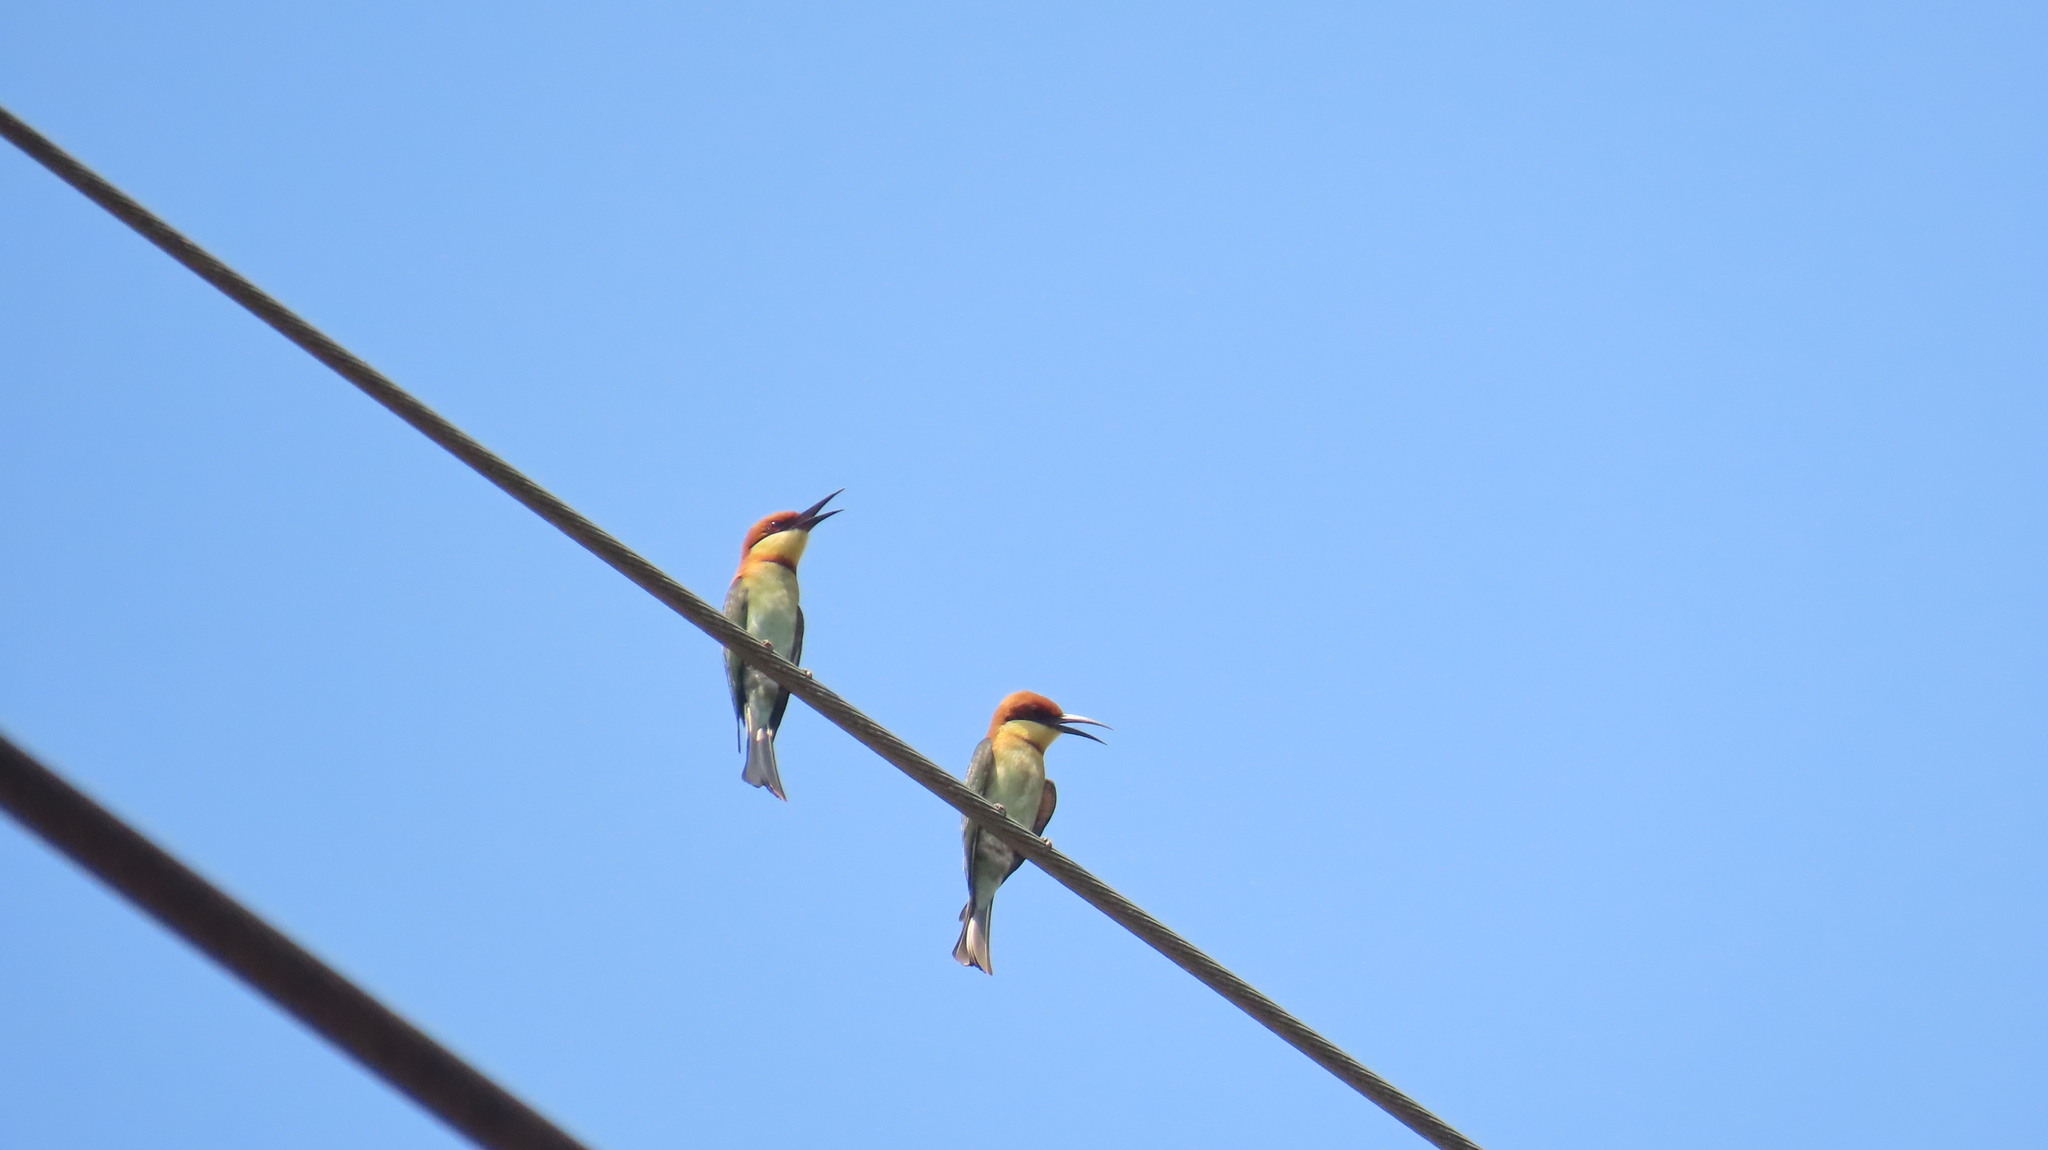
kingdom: Animalia
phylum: Chordata
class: Aves
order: Coraciiformes
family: Meropidae
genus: Merops
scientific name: Merops leschenaulti
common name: Chestnut-headed bee-eater
